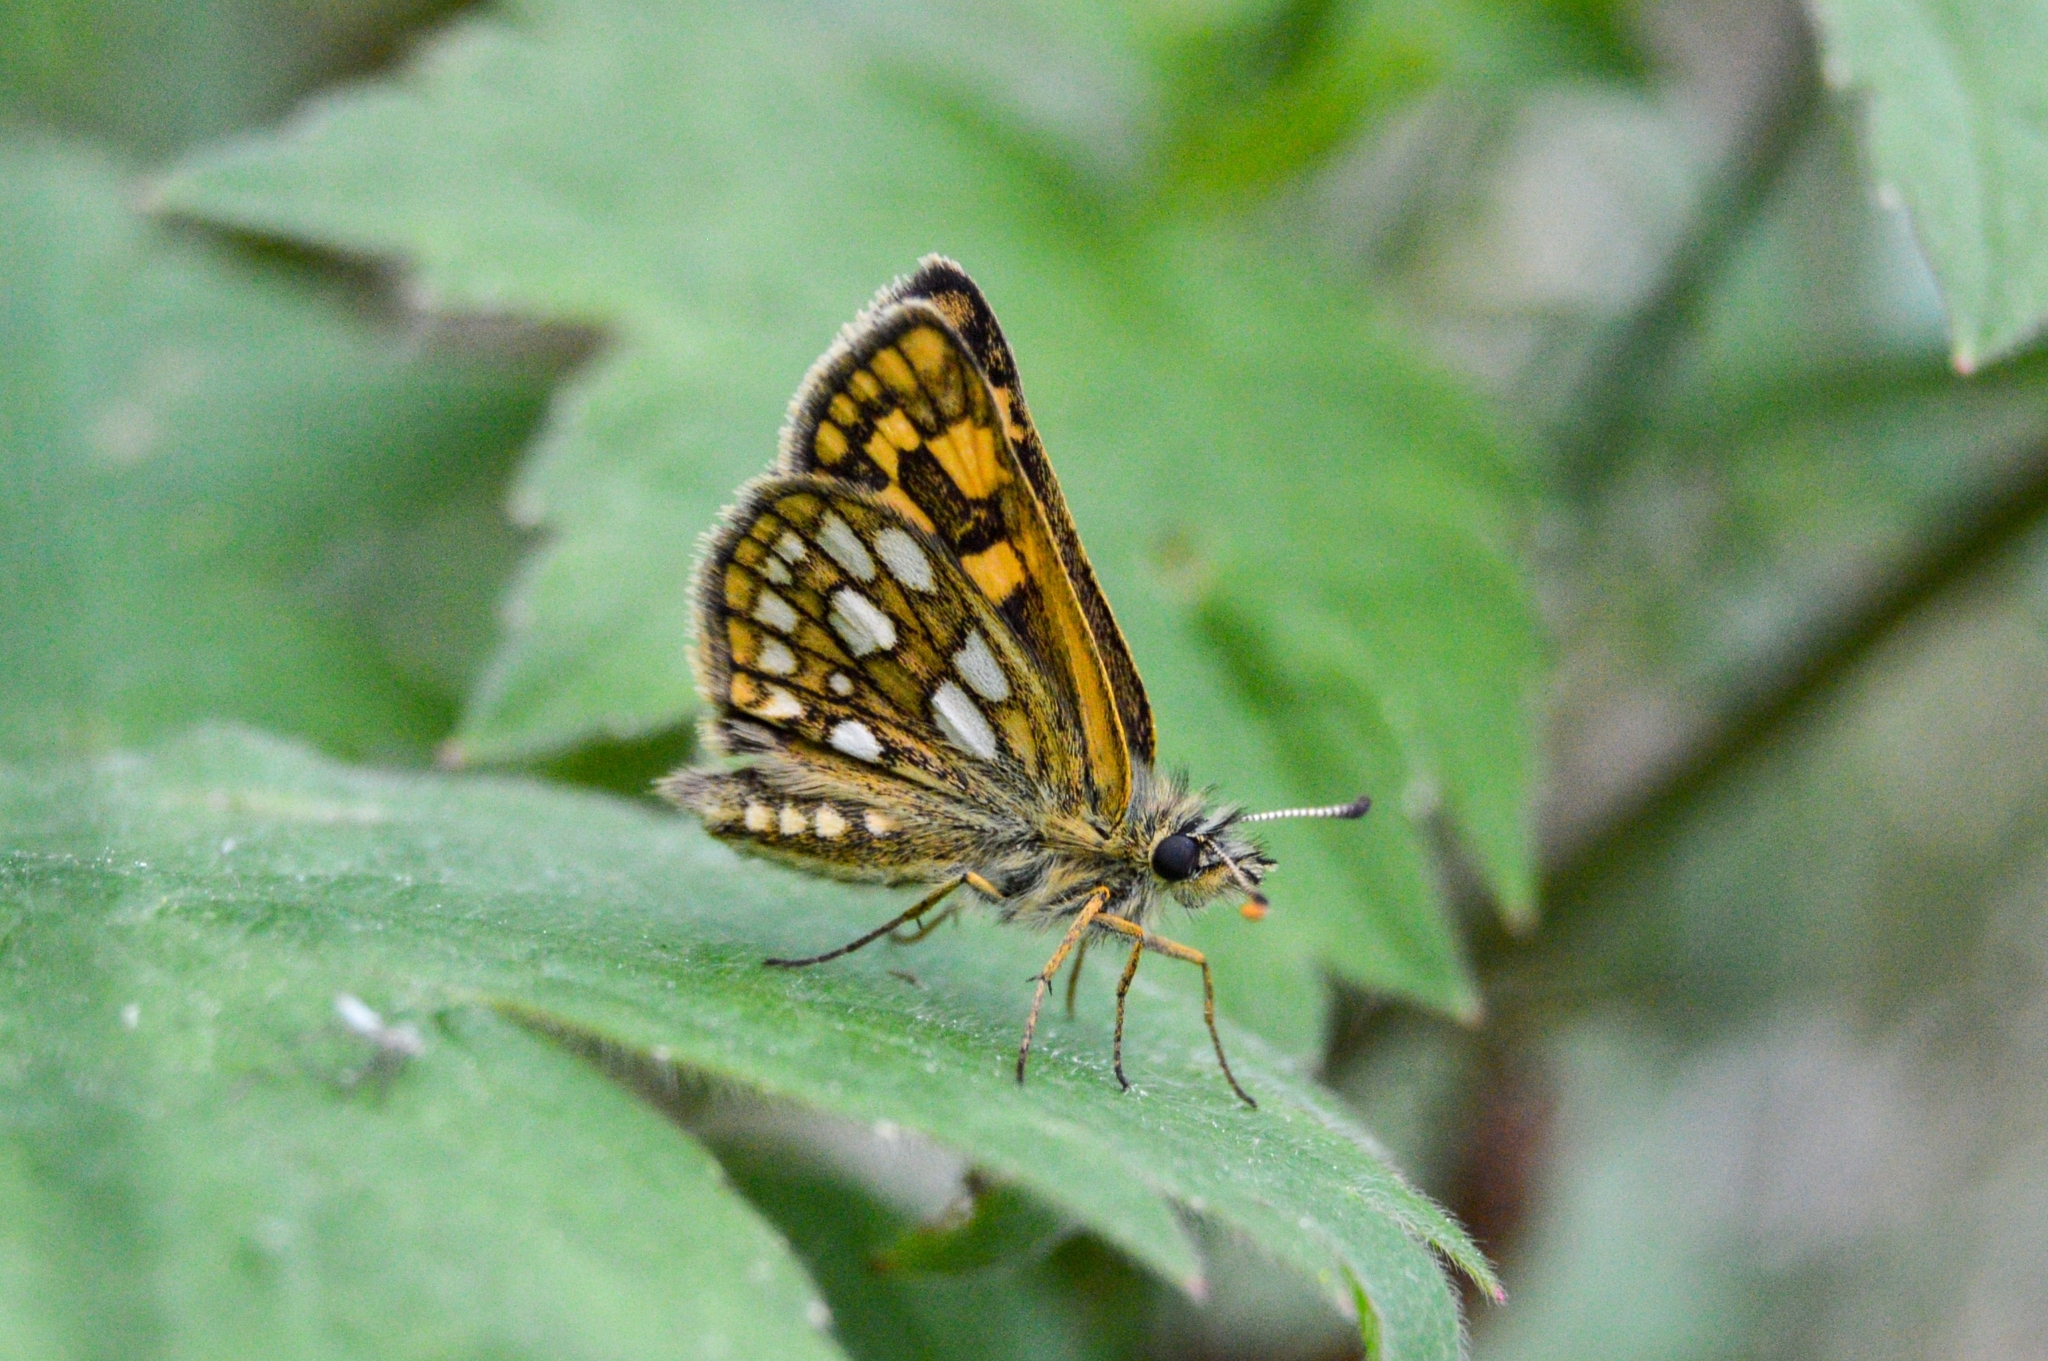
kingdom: Animalia
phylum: Arthropoda
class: Insecta
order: Lepidoptera
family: Hesperiidae
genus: Carterocephalus
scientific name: Carterocephalus palaemon
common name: Chequered skipper
